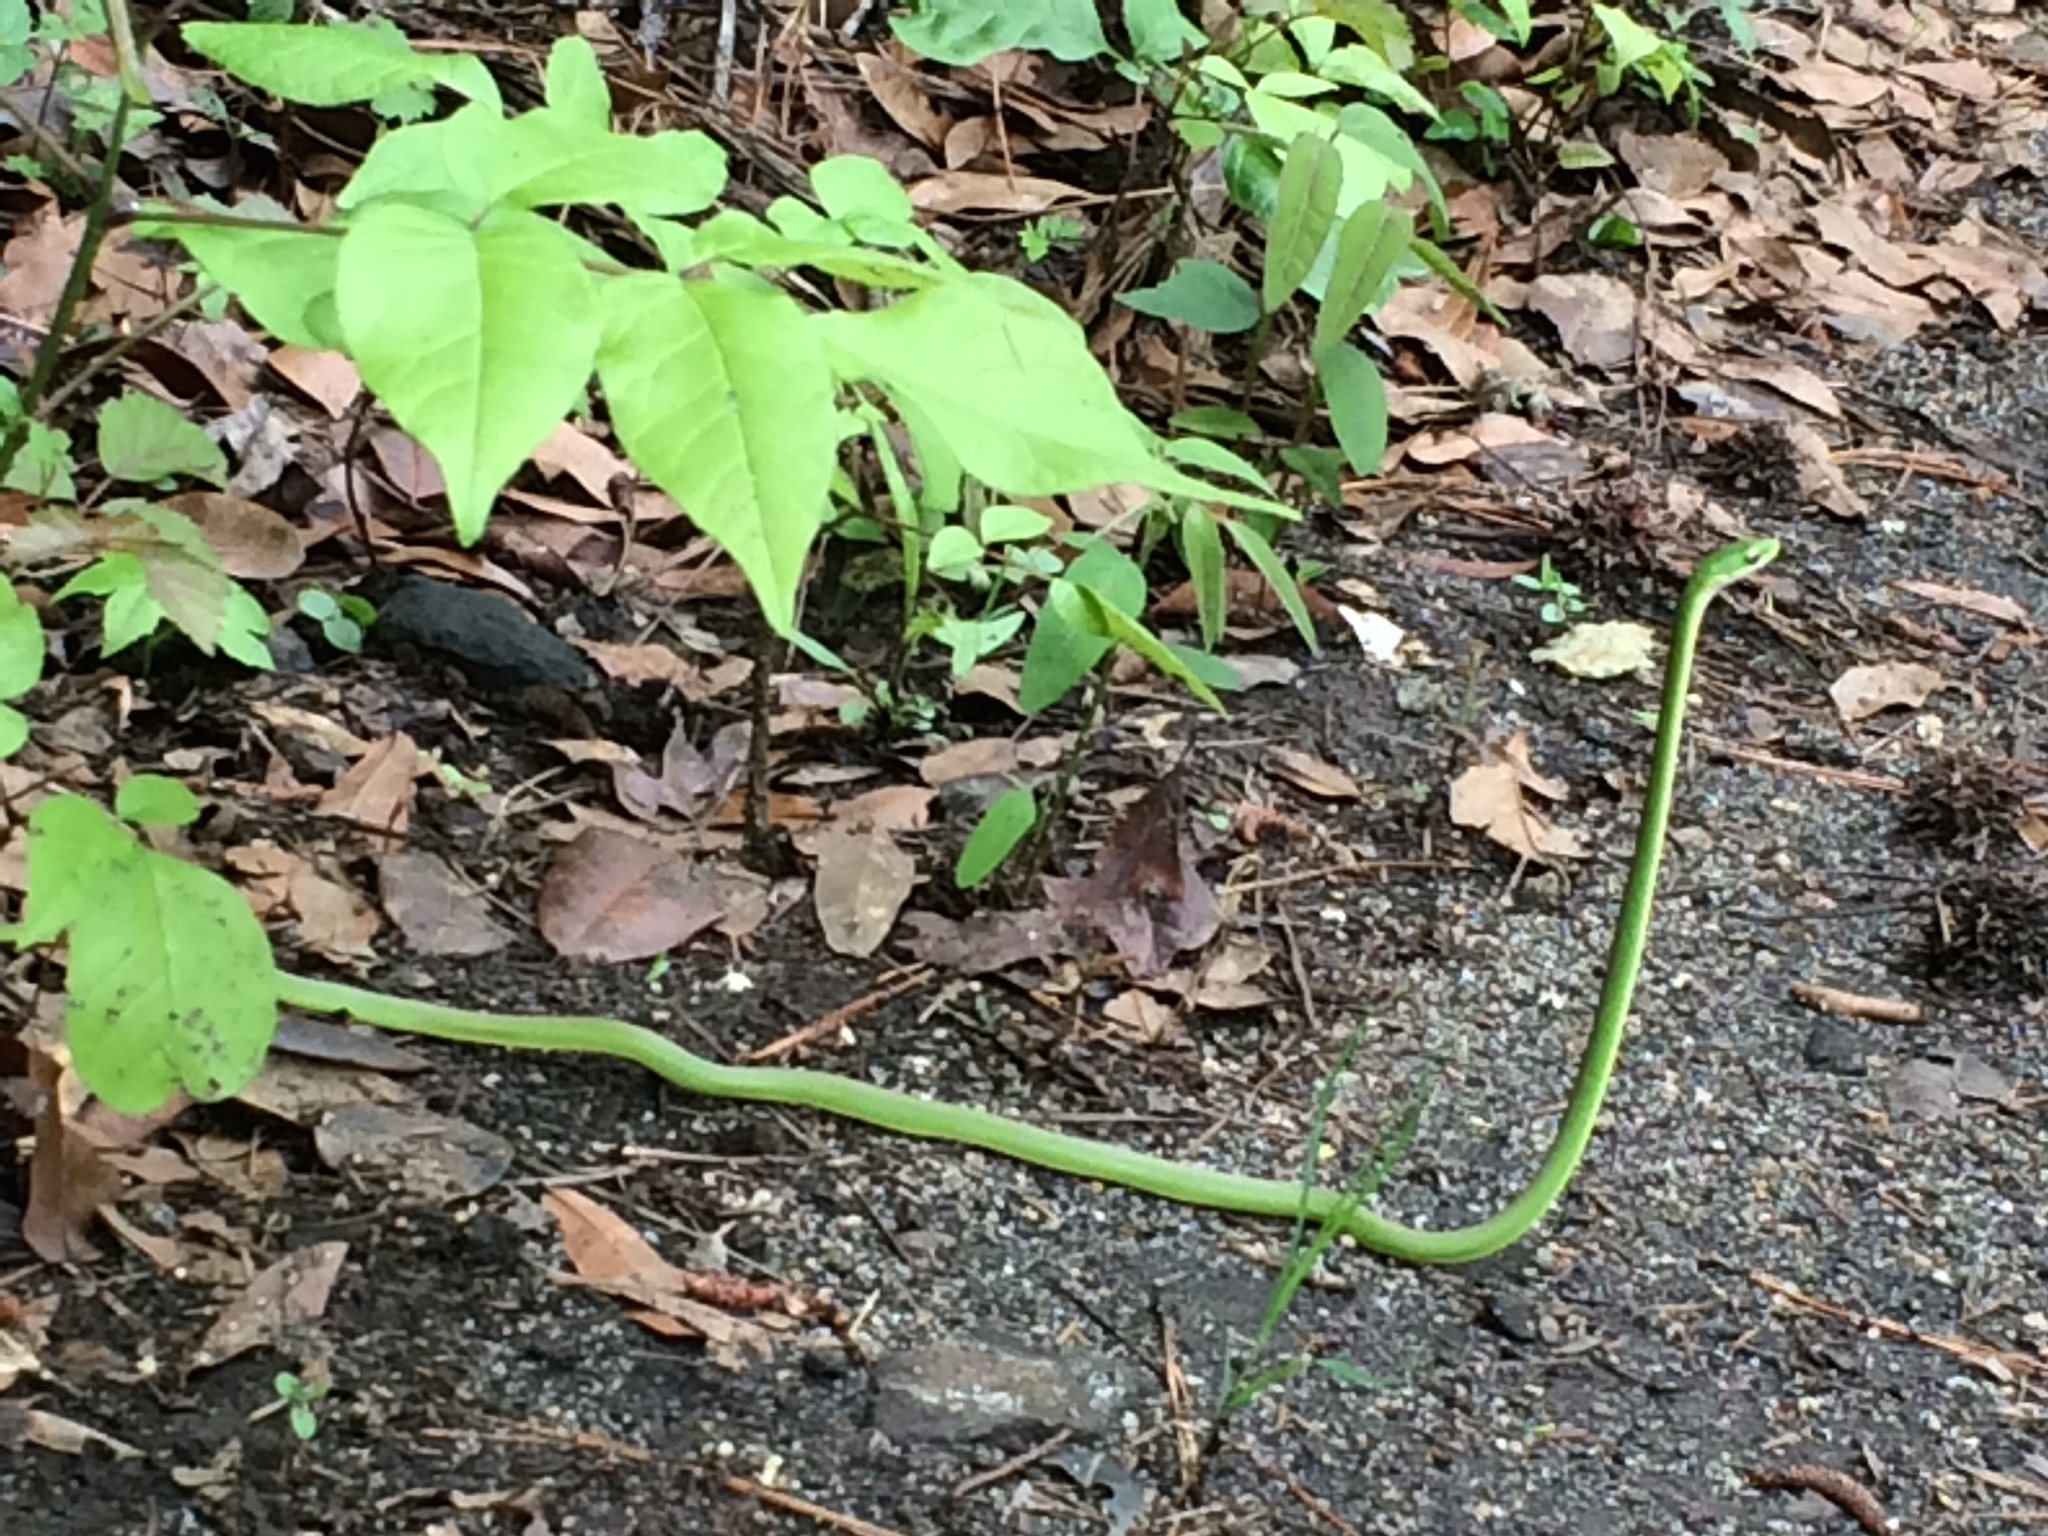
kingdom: Animalia
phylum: Chordata
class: Squamata
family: Colubridae
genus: Opheodrys
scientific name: Opheodrys aestivus
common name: Rough greensnake
